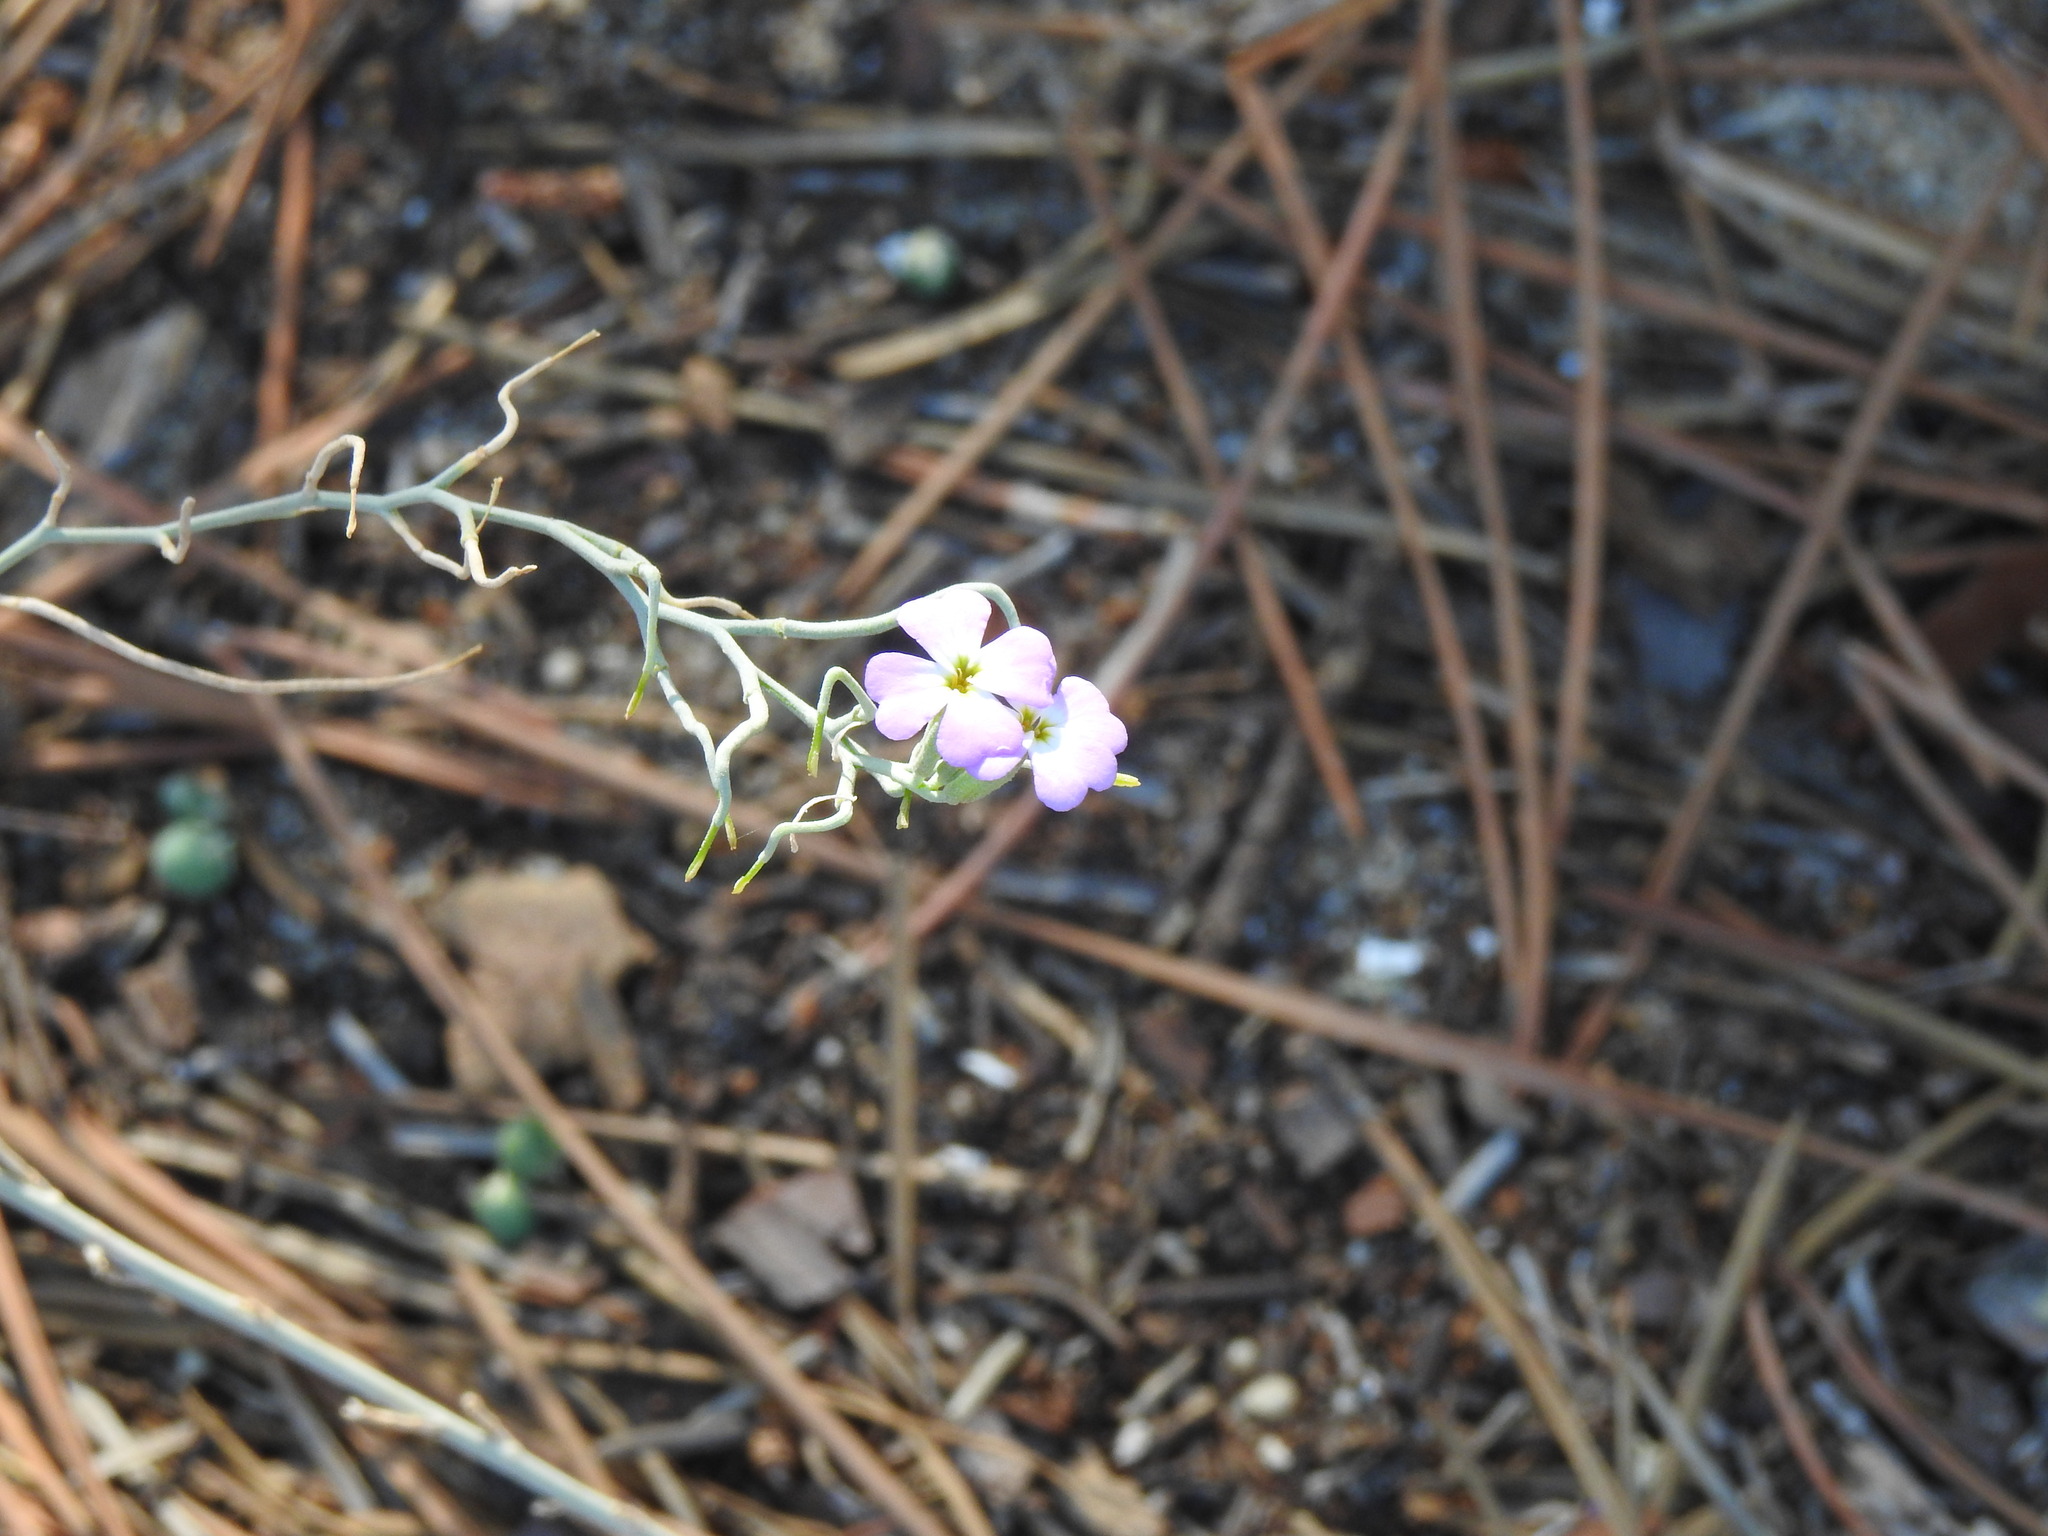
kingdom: Plantae
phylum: Tracheophyta
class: Magnoliopsida
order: Brassicales
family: Brassicaceae
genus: Marcuskochia
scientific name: Marcuskochia littorea
